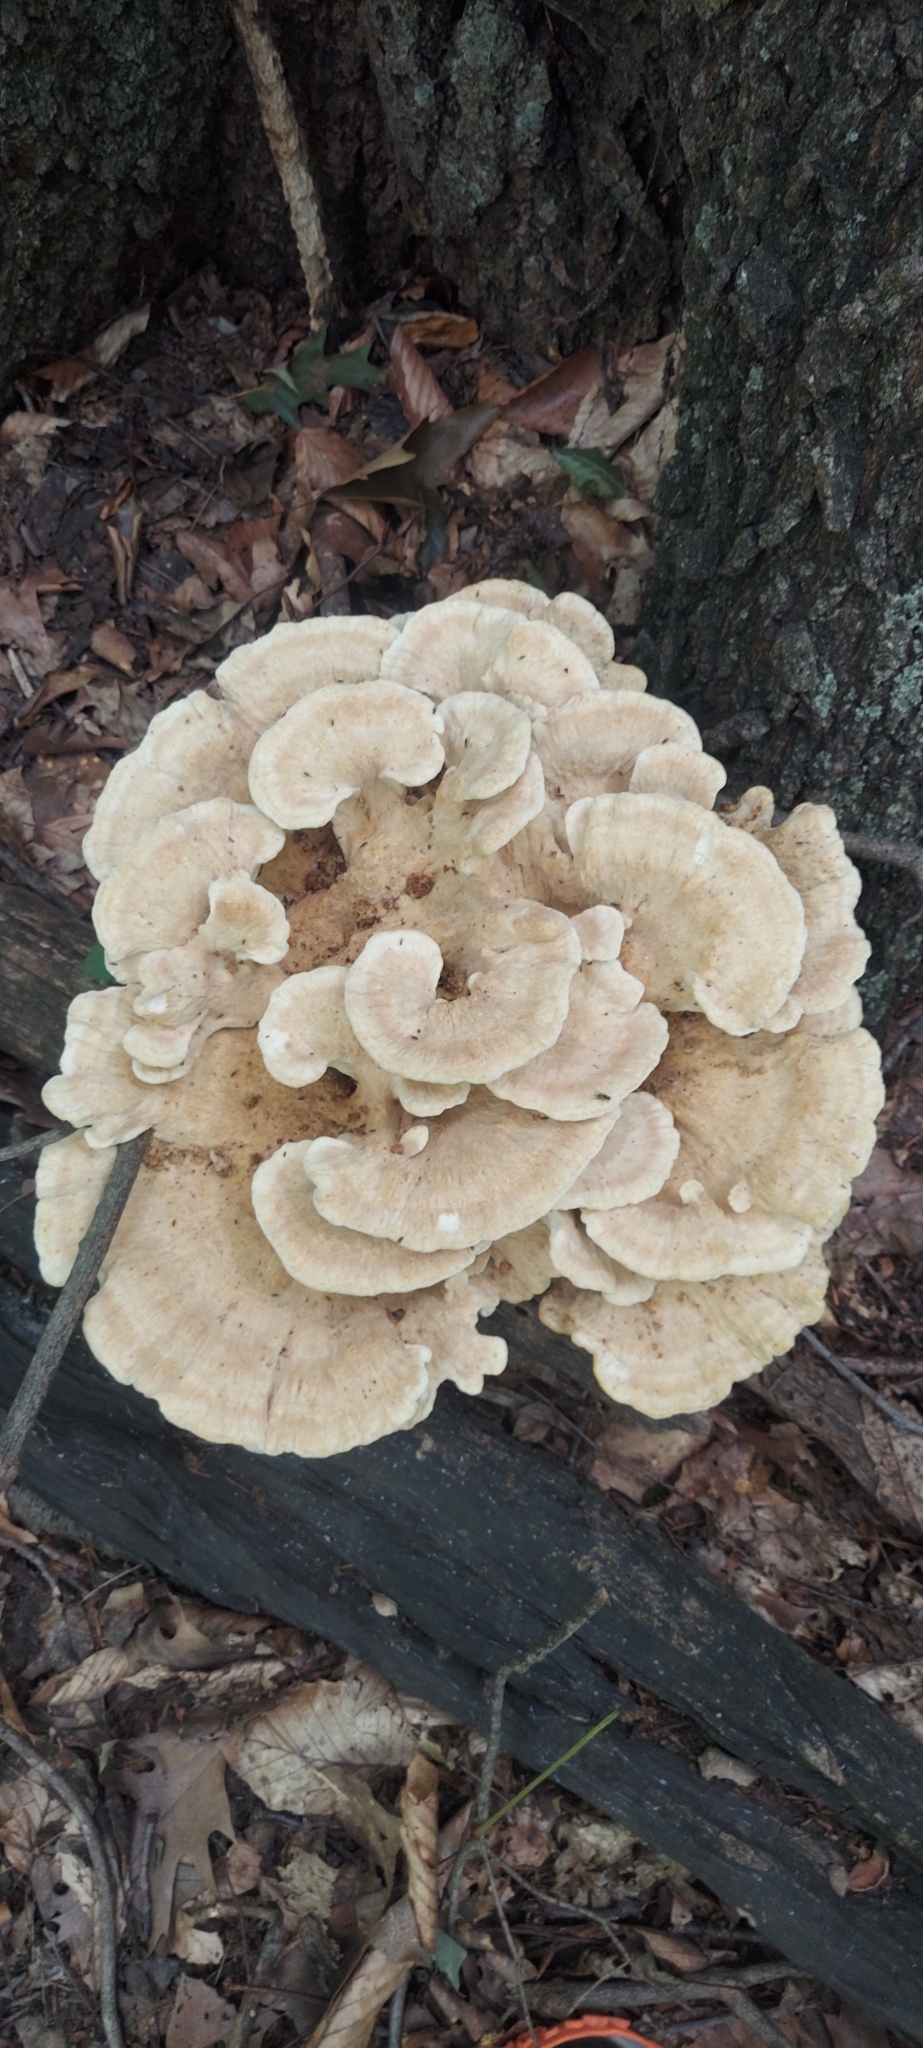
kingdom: Fungi
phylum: Basidiomycota
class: Agaricomycetes
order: Russulales
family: Bondarzewiaceae
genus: Bondarzewia
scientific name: Bondarzewia berkeleyi
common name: Berkeley's polypore
